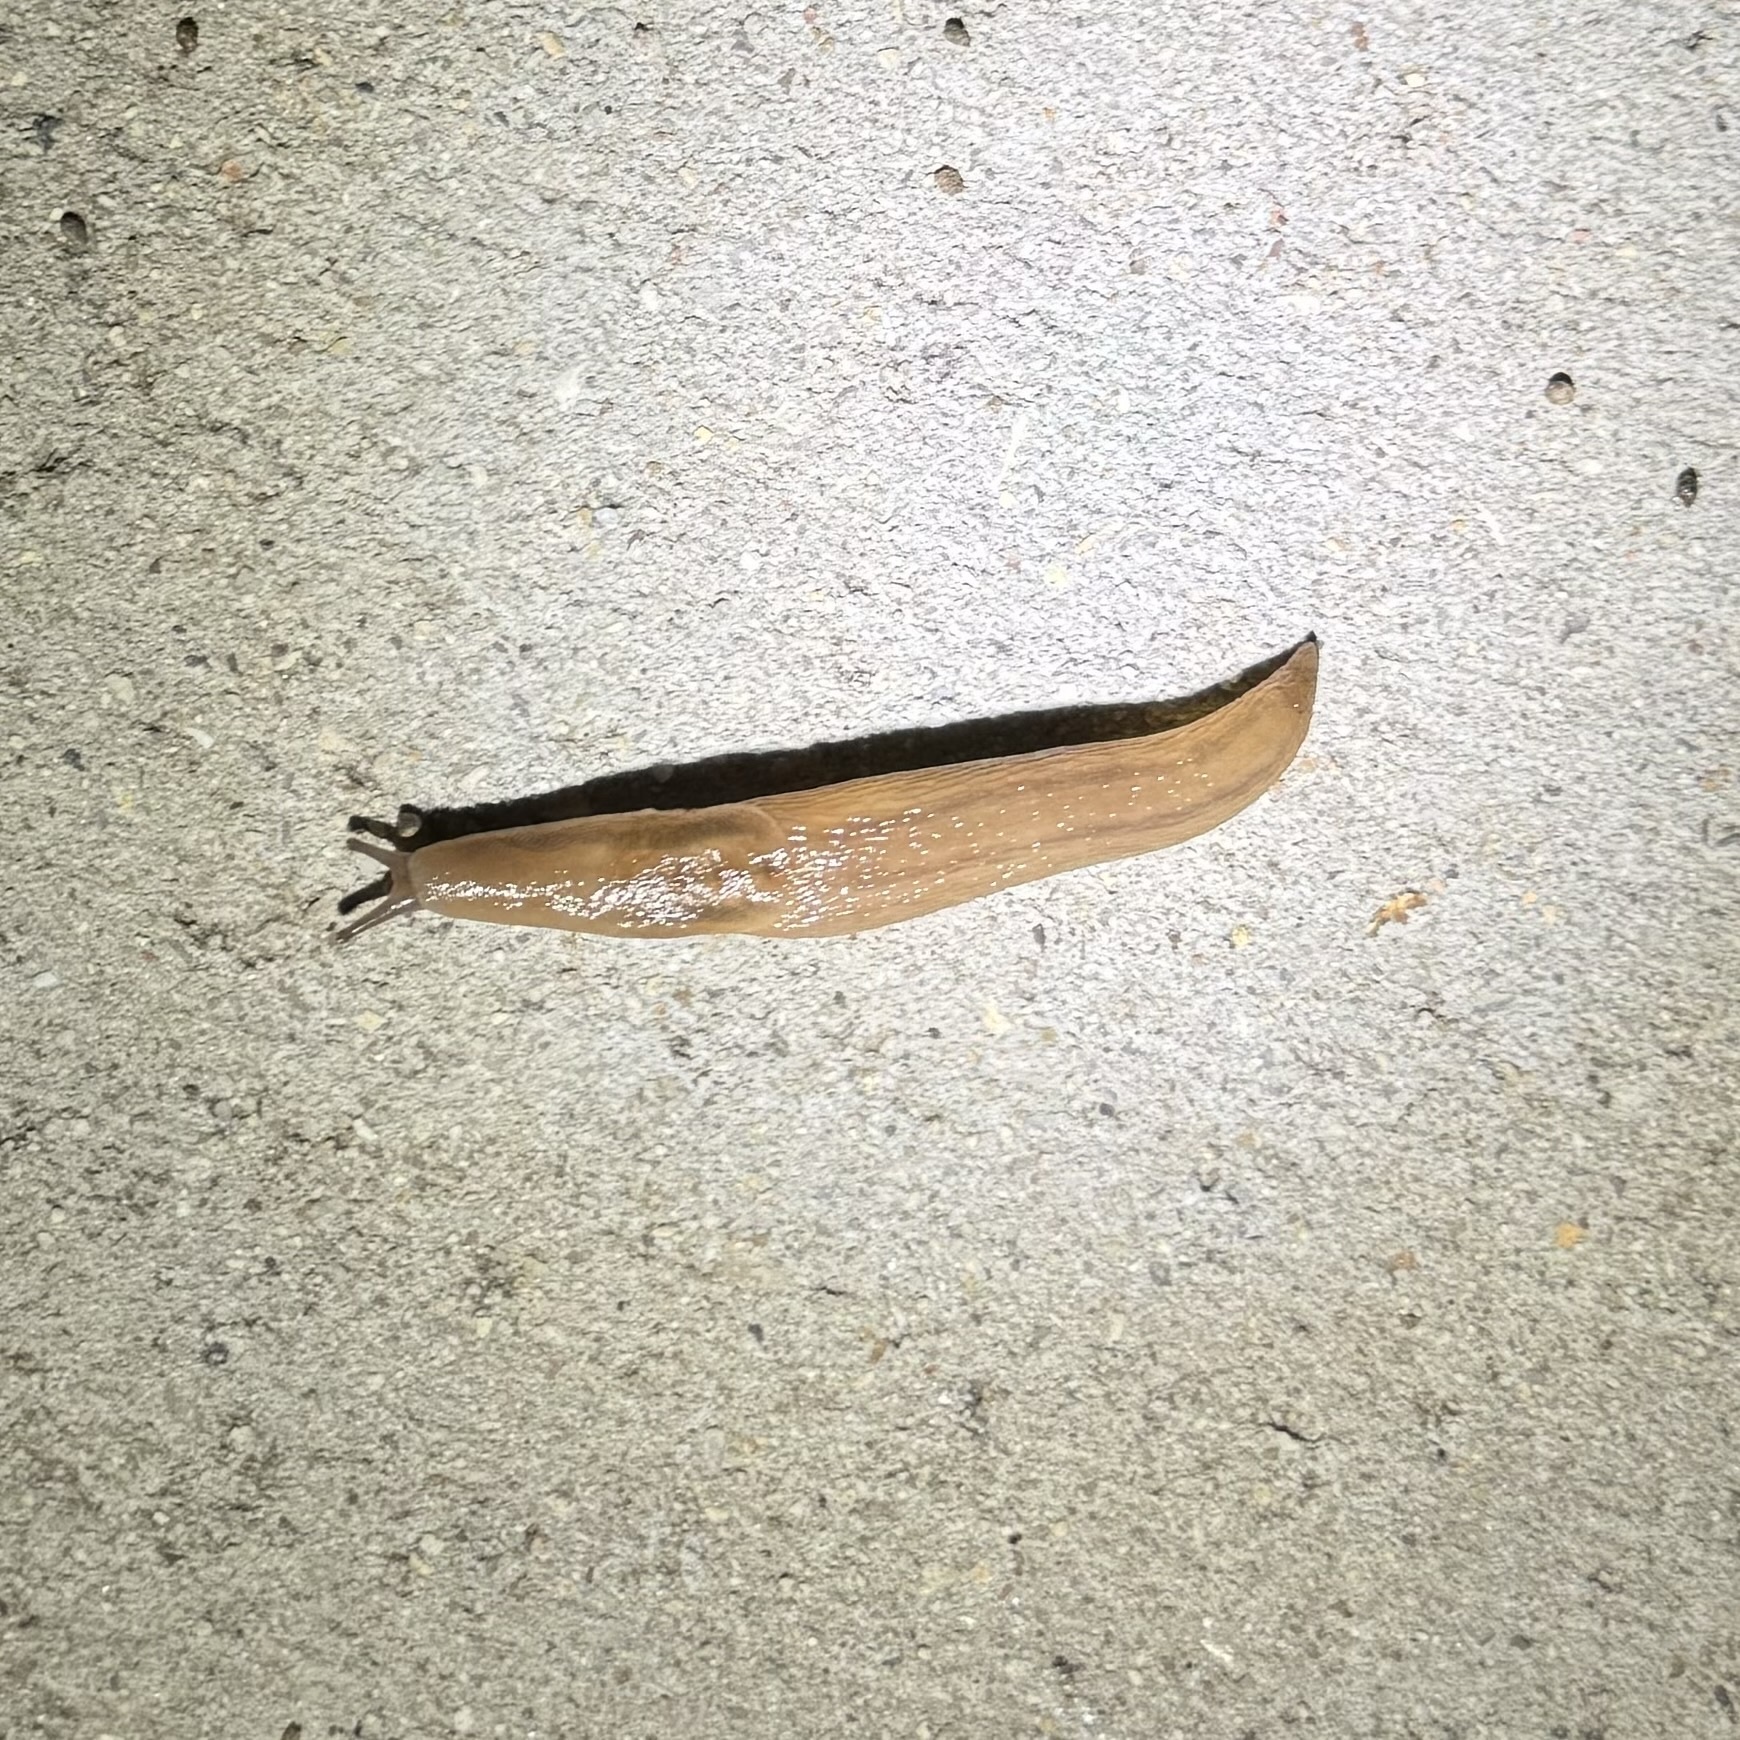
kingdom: Animalia
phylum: Mollusca
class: Gastropoda
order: Stylommatophora
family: Limacidae
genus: Ambigolimax
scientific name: Ambigolimax
